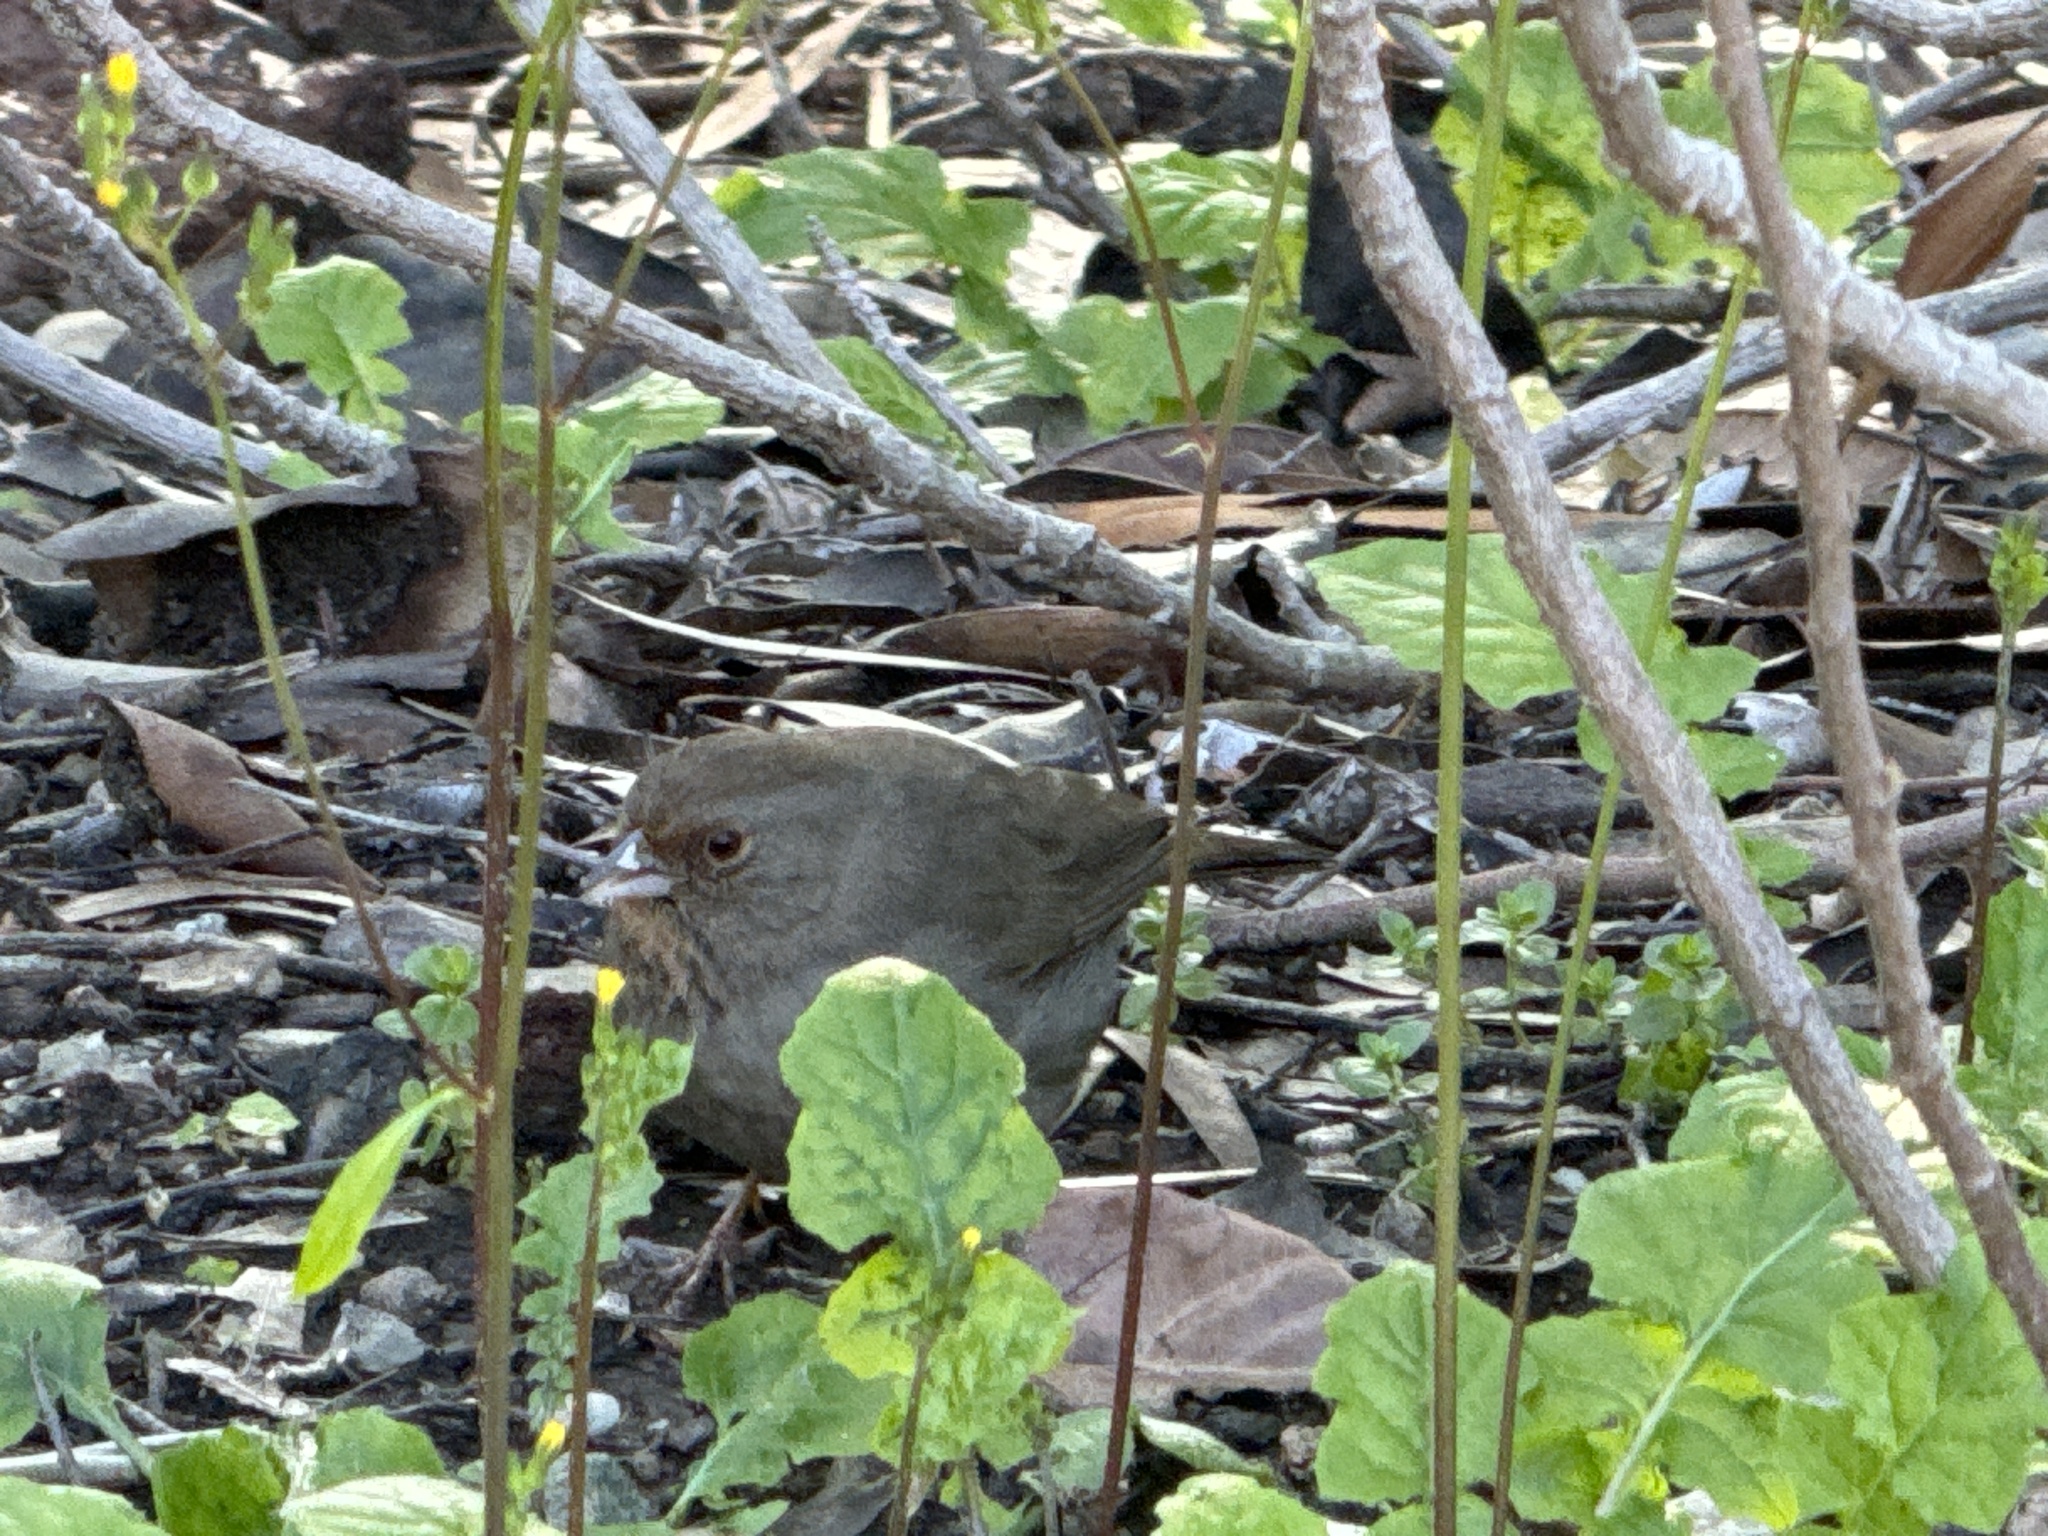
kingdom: Animalia
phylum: Chordata
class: Aves
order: Passeriformes
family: Passerellidae
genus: Melozone
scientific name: Melozone crissalis
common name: California towhee
